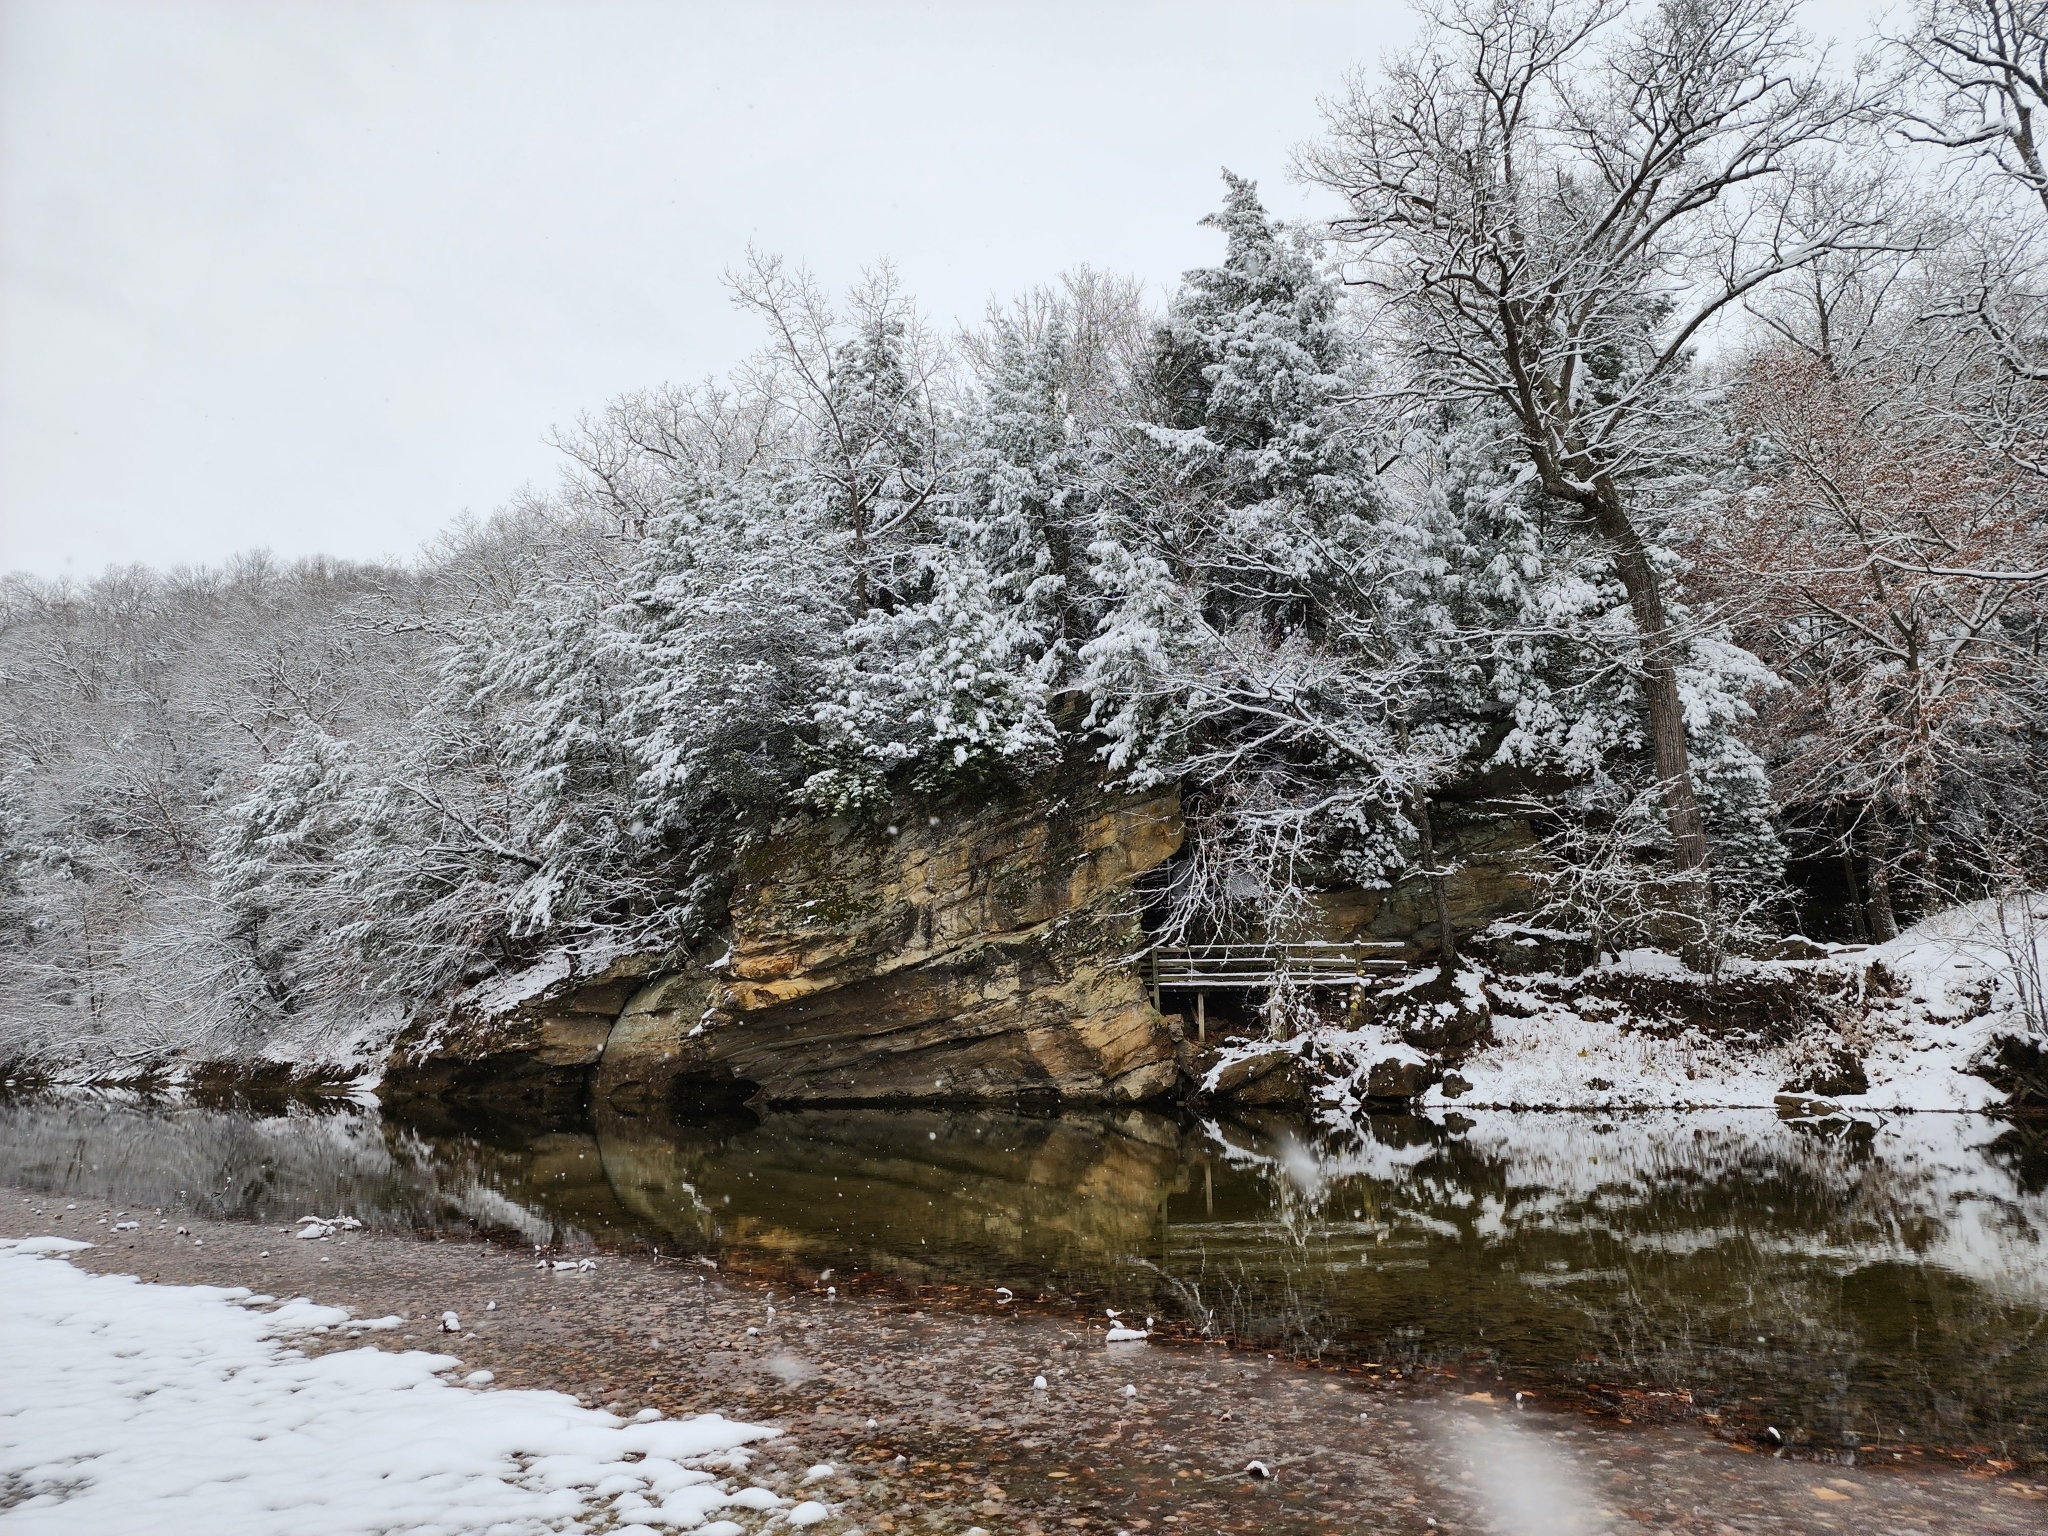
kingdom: Plantae
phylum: Tracheophyta
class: Pinopsida
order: Pinales
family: Pinaceae
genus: Tsuga
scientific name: Tsuga canadensis
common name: Eastern hemlock
